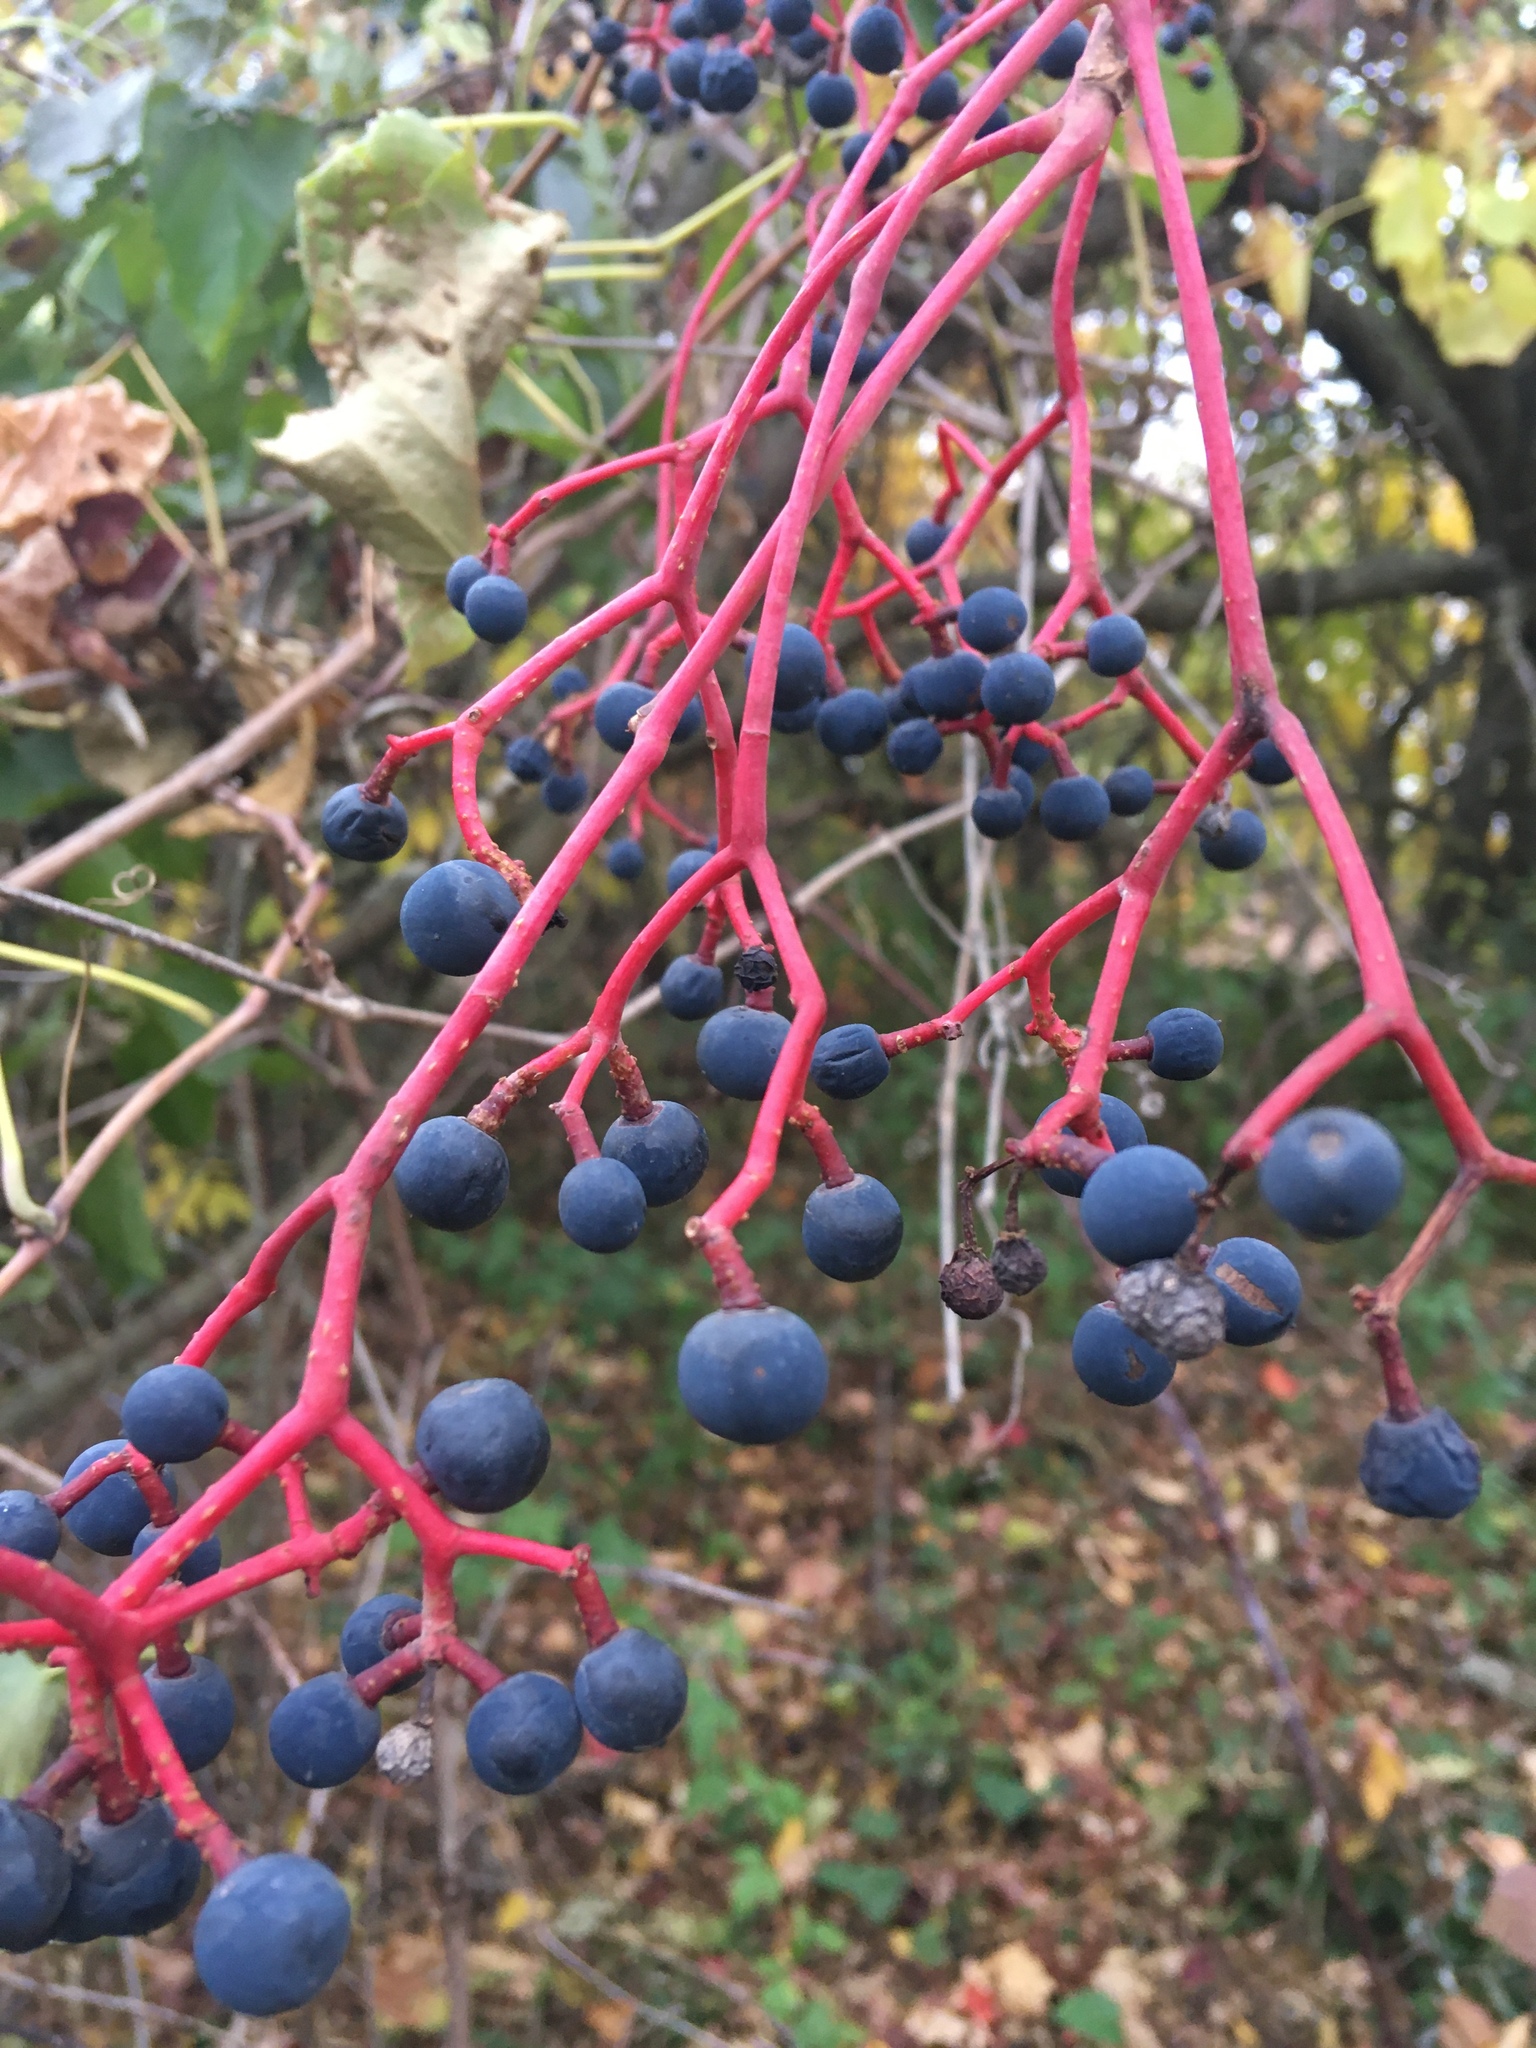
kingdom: Plantae
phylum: Tracheophyta
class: Magnoliopsida
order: Vitales
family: Vitaceae
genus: Parthenocissus
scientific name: Parthenocissus quinquefolia
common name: Virginia-creeper
